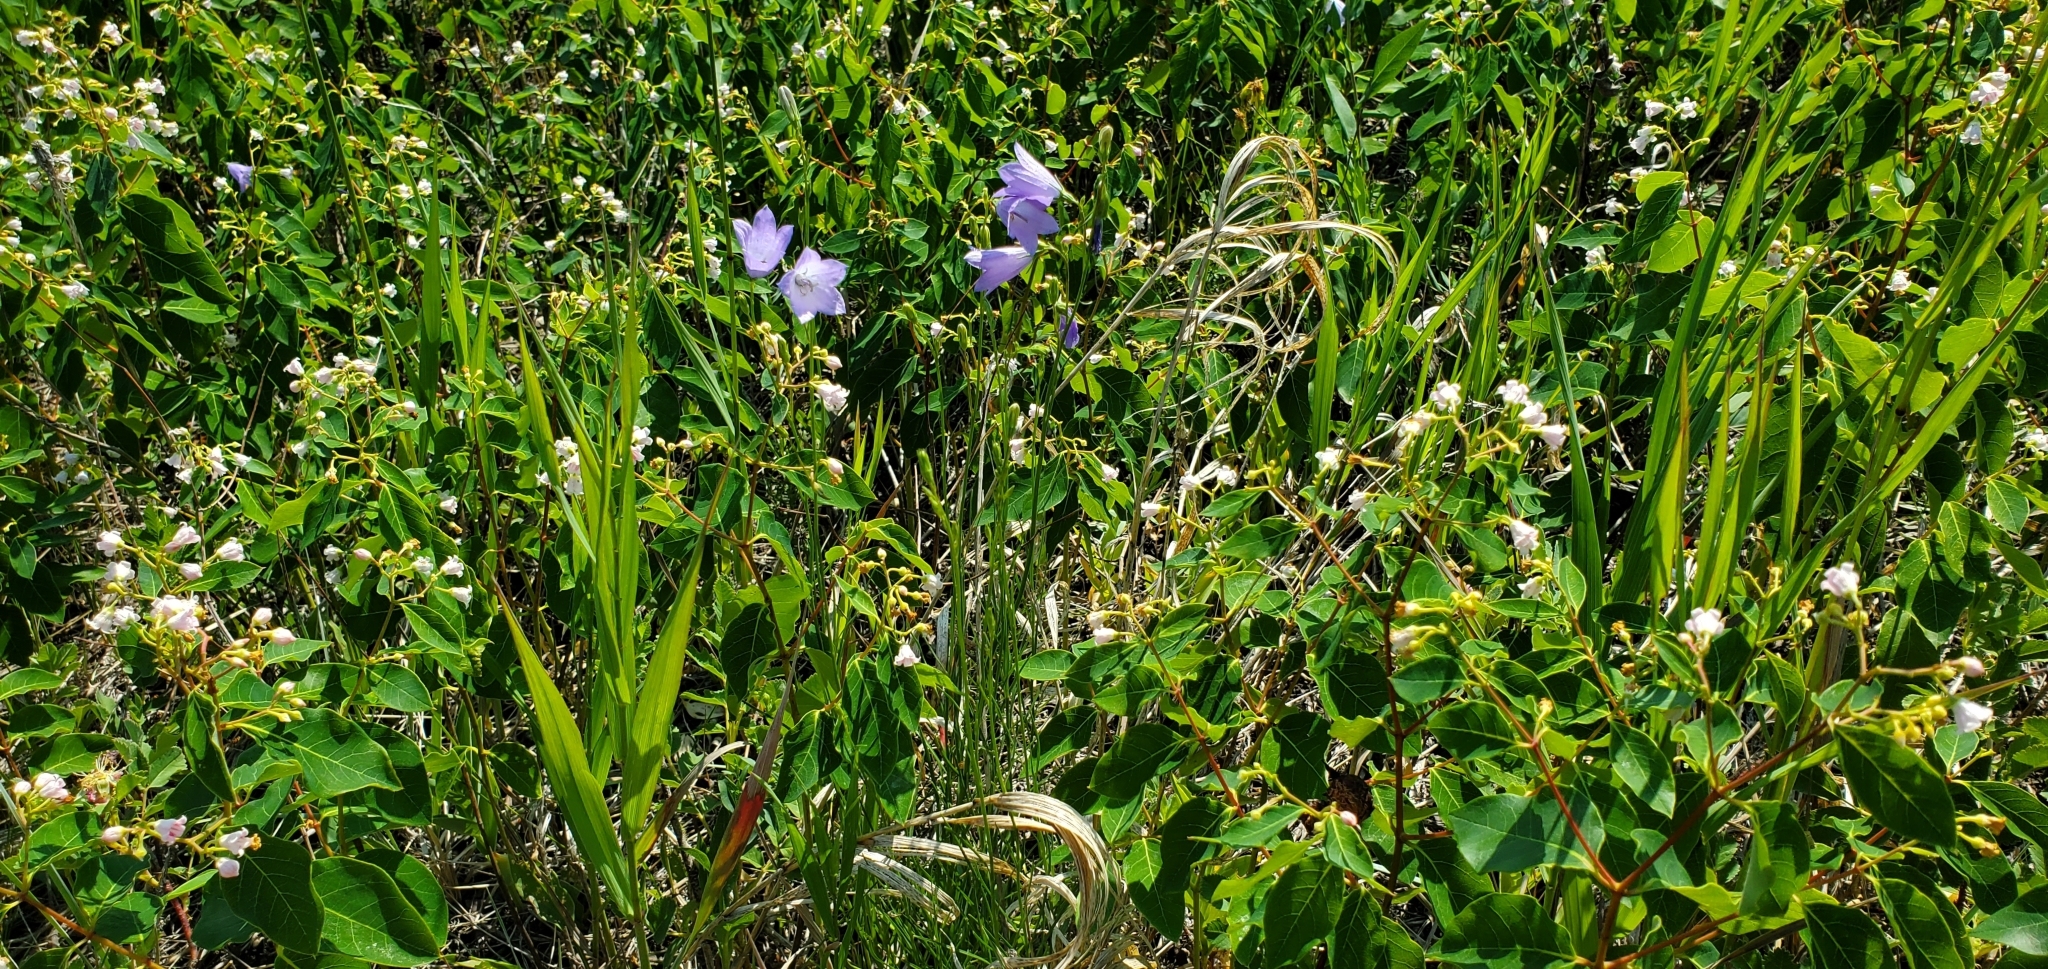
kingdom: Plantae
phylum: Tracheophyta
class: Magnoliopsida
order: Asterales
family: Campanulaceae
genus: Campanula
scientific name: Campanula alaskana
